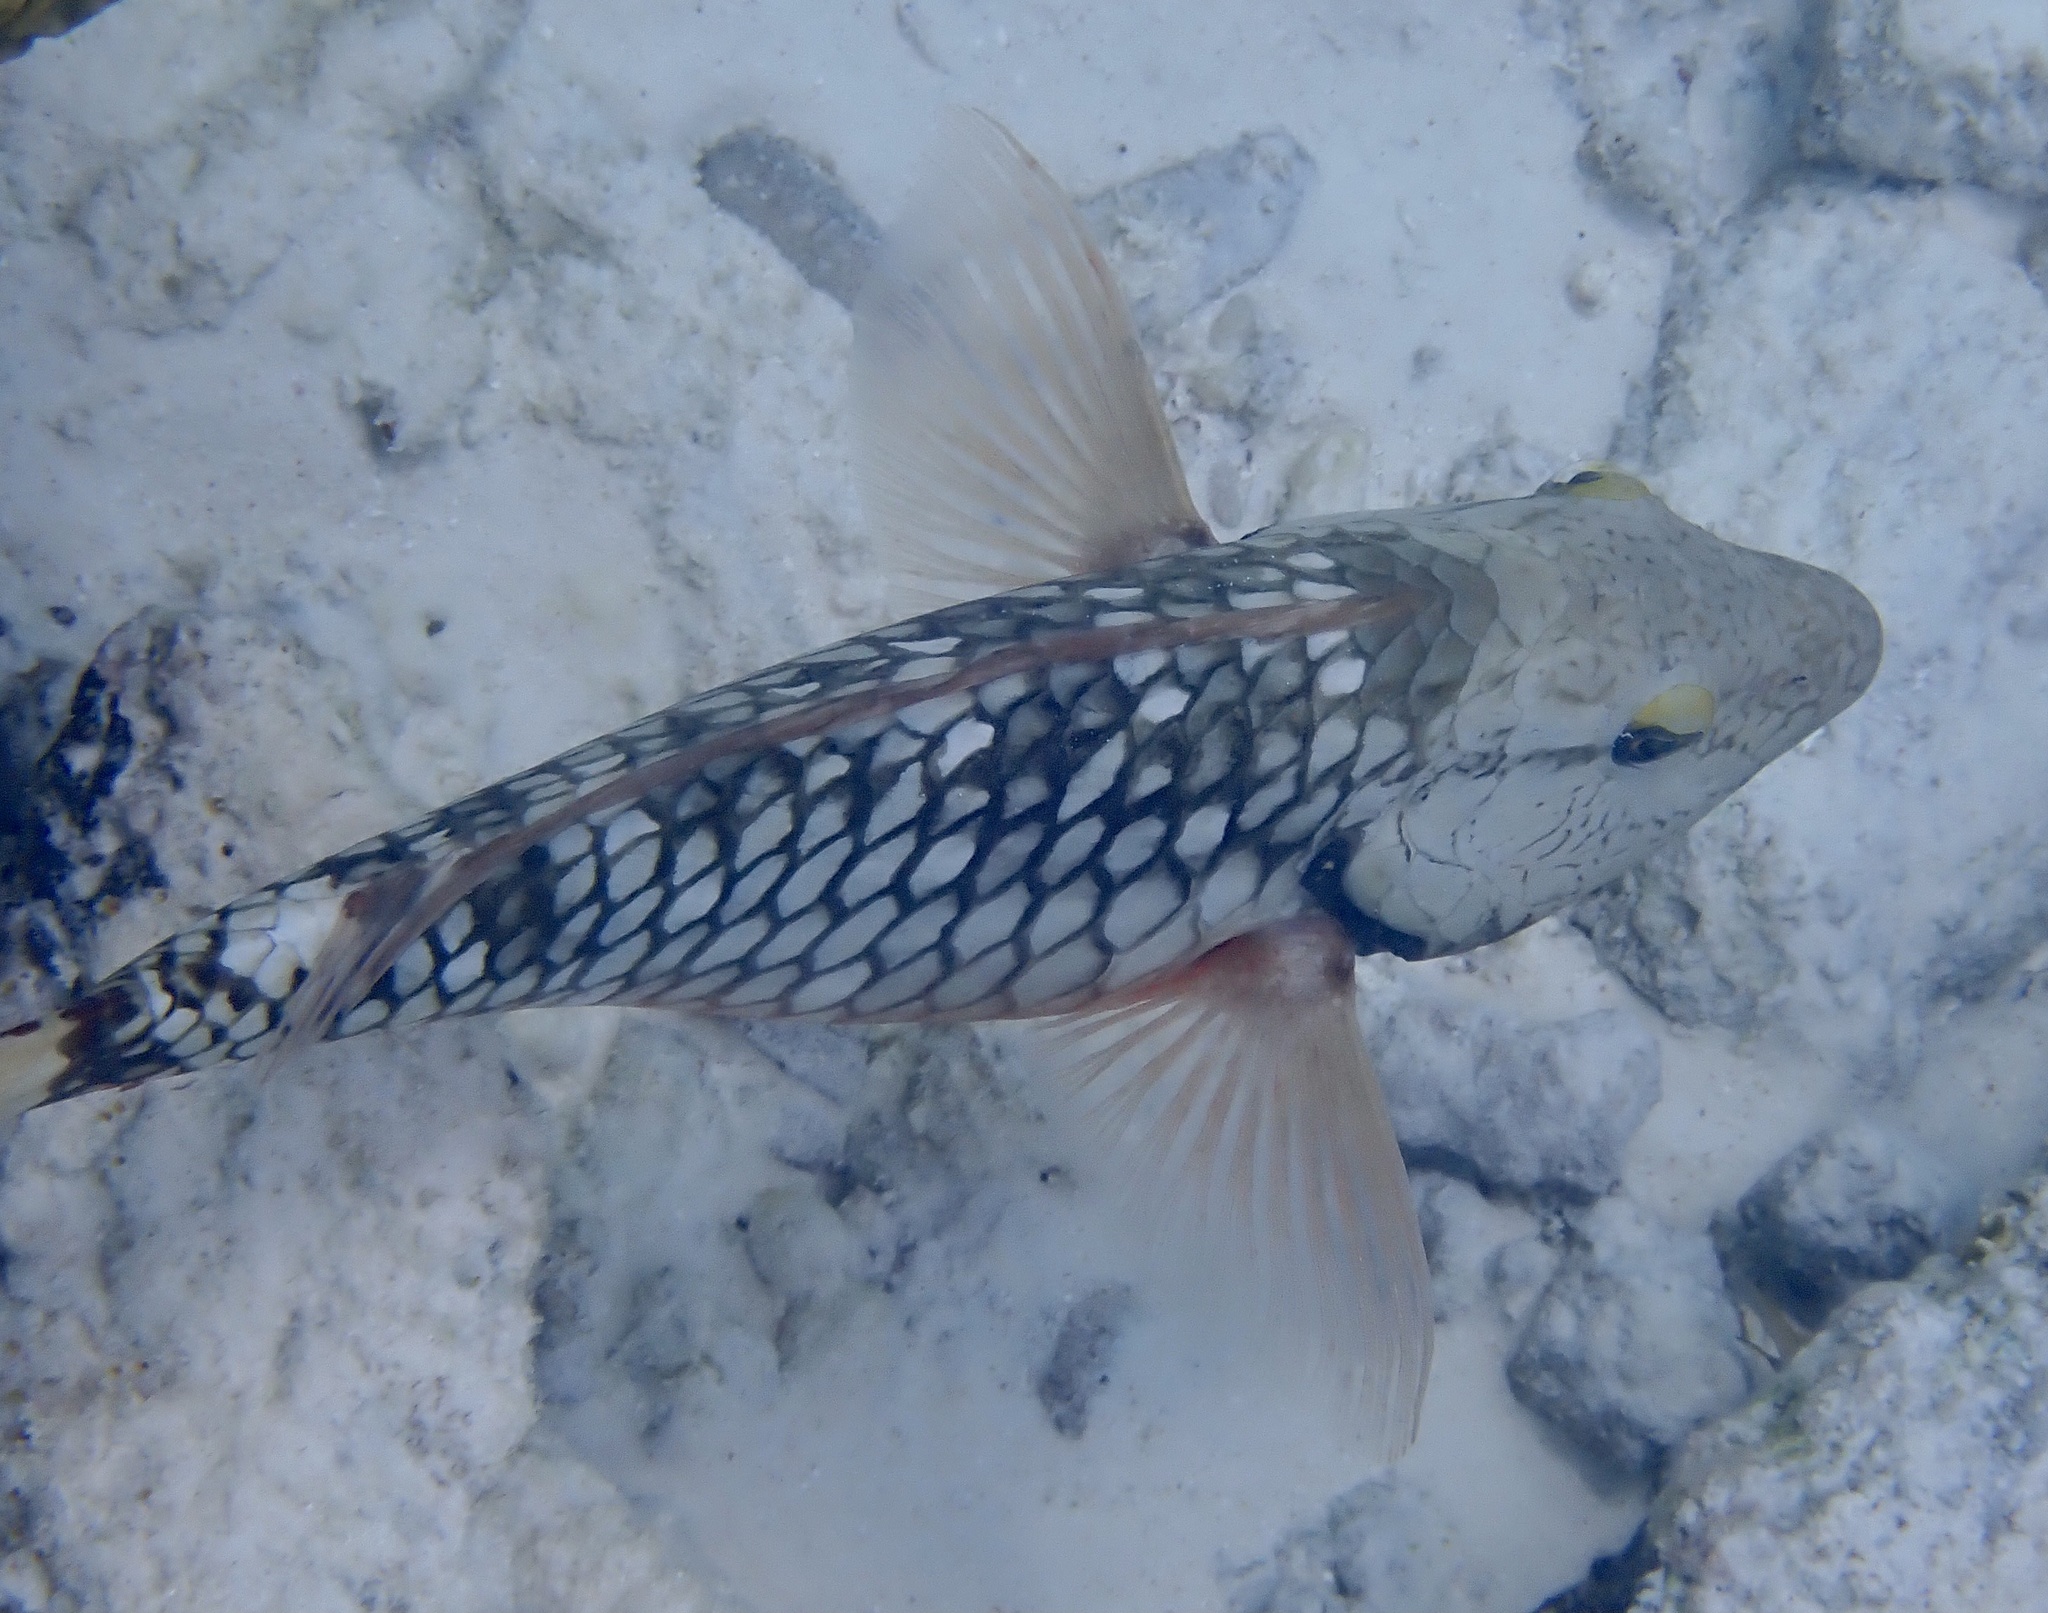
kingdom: Animalia
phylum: Chordata
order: Perciformes
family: Scaridae
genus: Sparisoma
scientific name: Sparisoma viride
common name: Stoplight parrotfish
